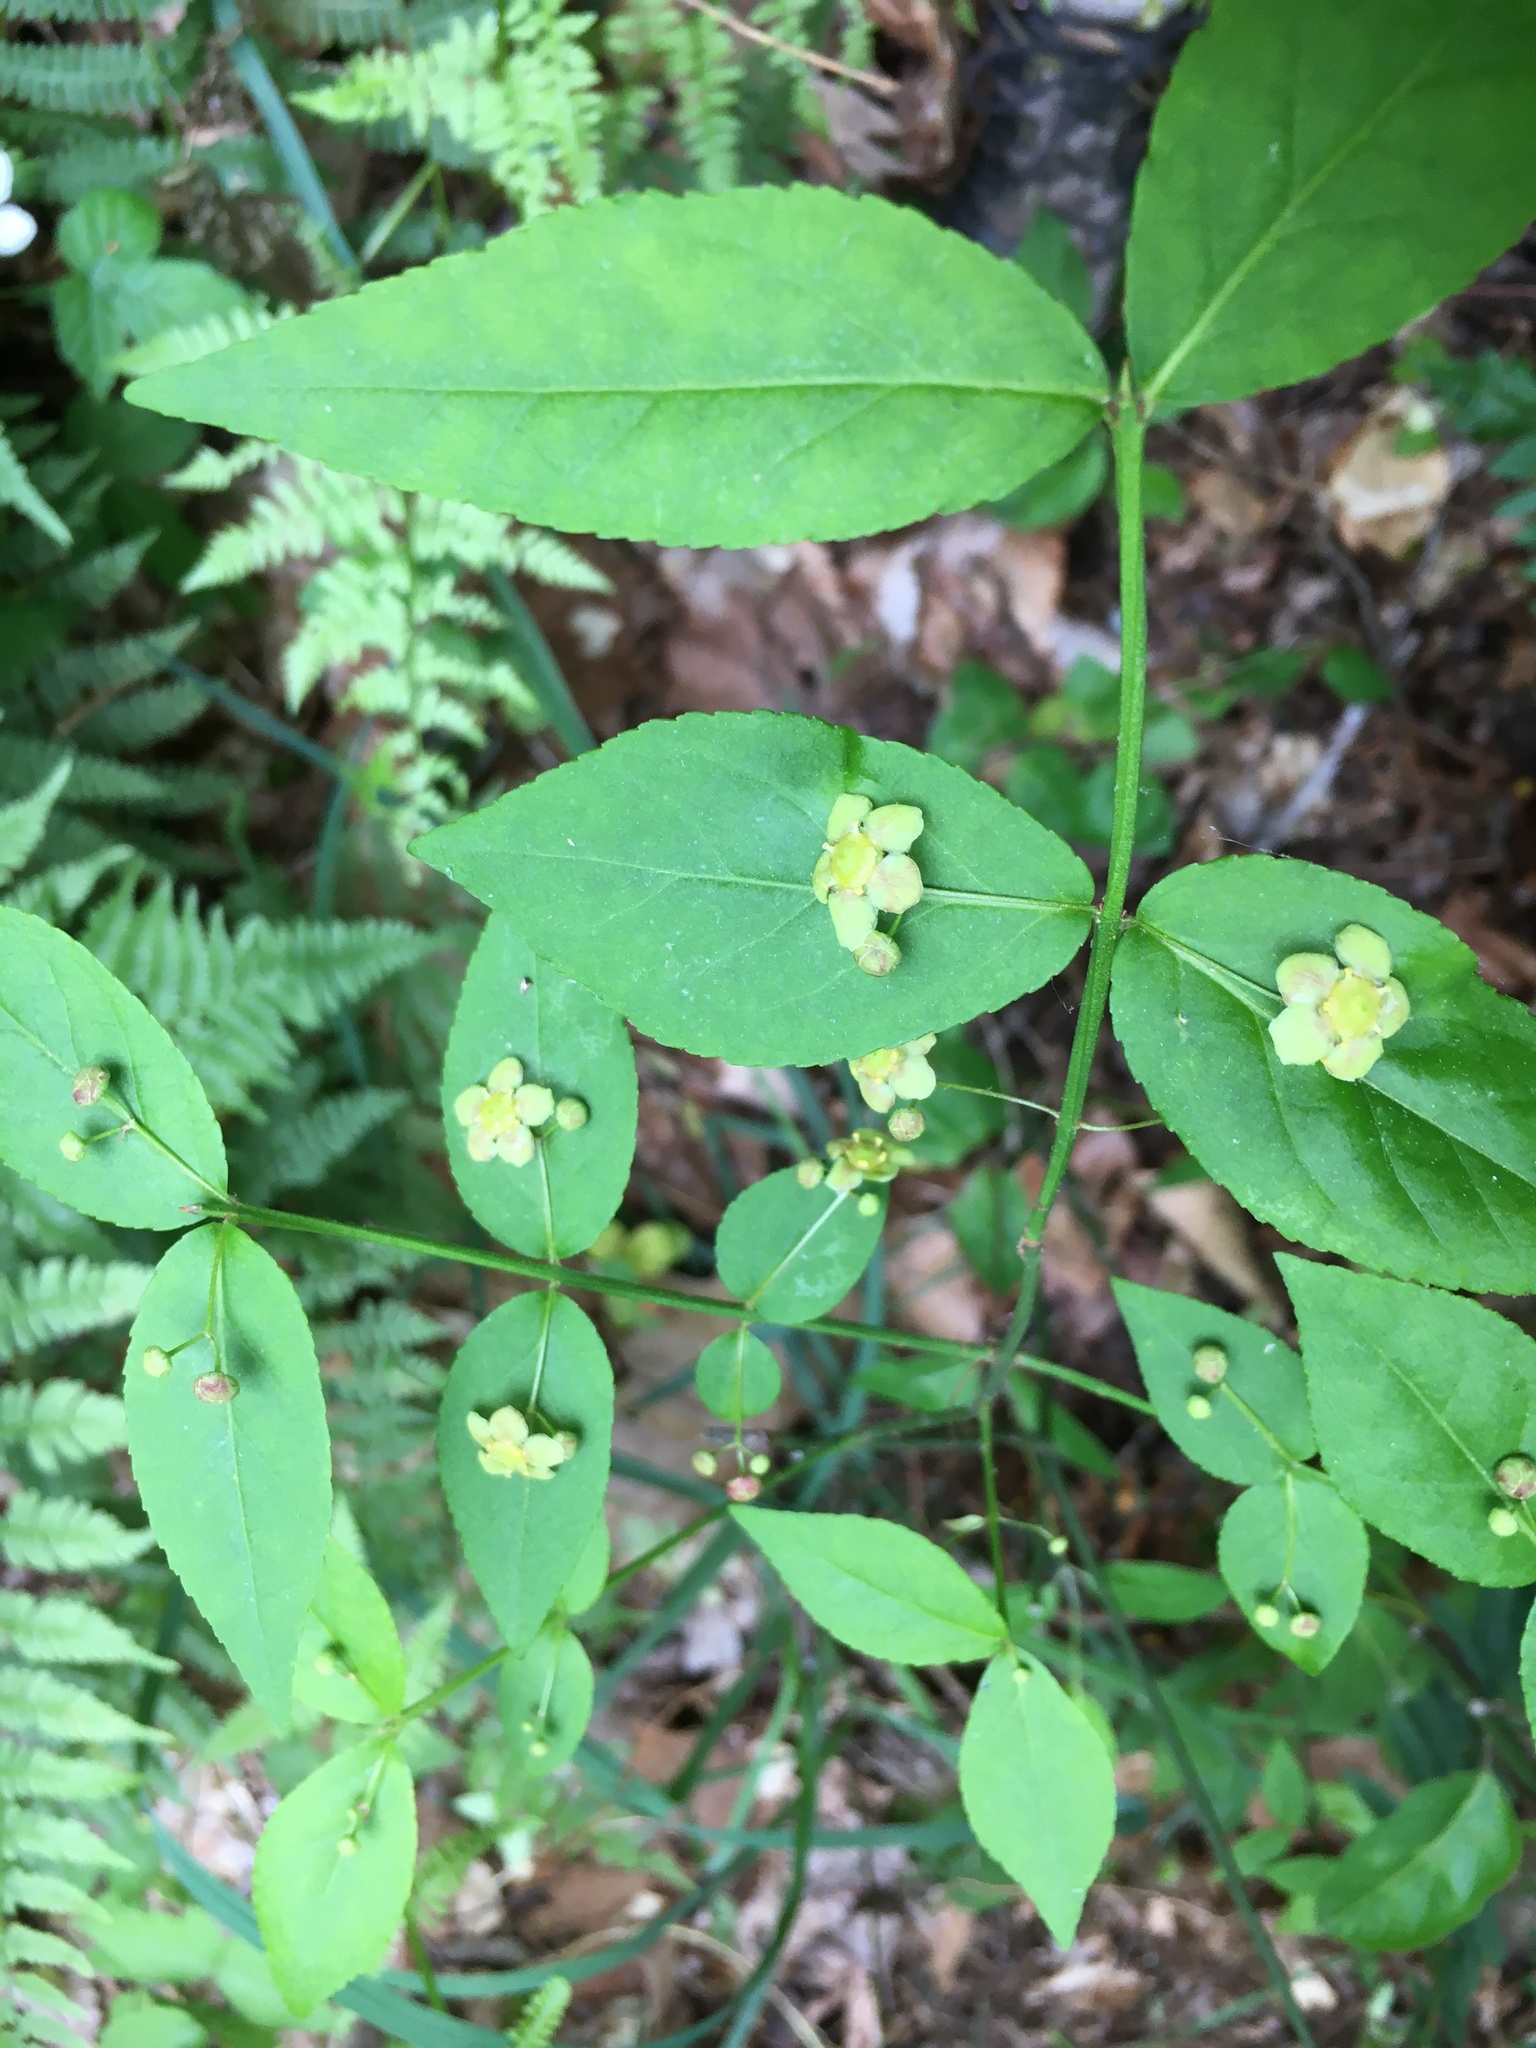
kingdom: Plantae
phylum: Tracheophyta
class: Magnoliopsida
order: Celastrales
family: Celastraceae
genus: Euonymus
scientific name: Euonymus americanus
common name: Bursting-heart
